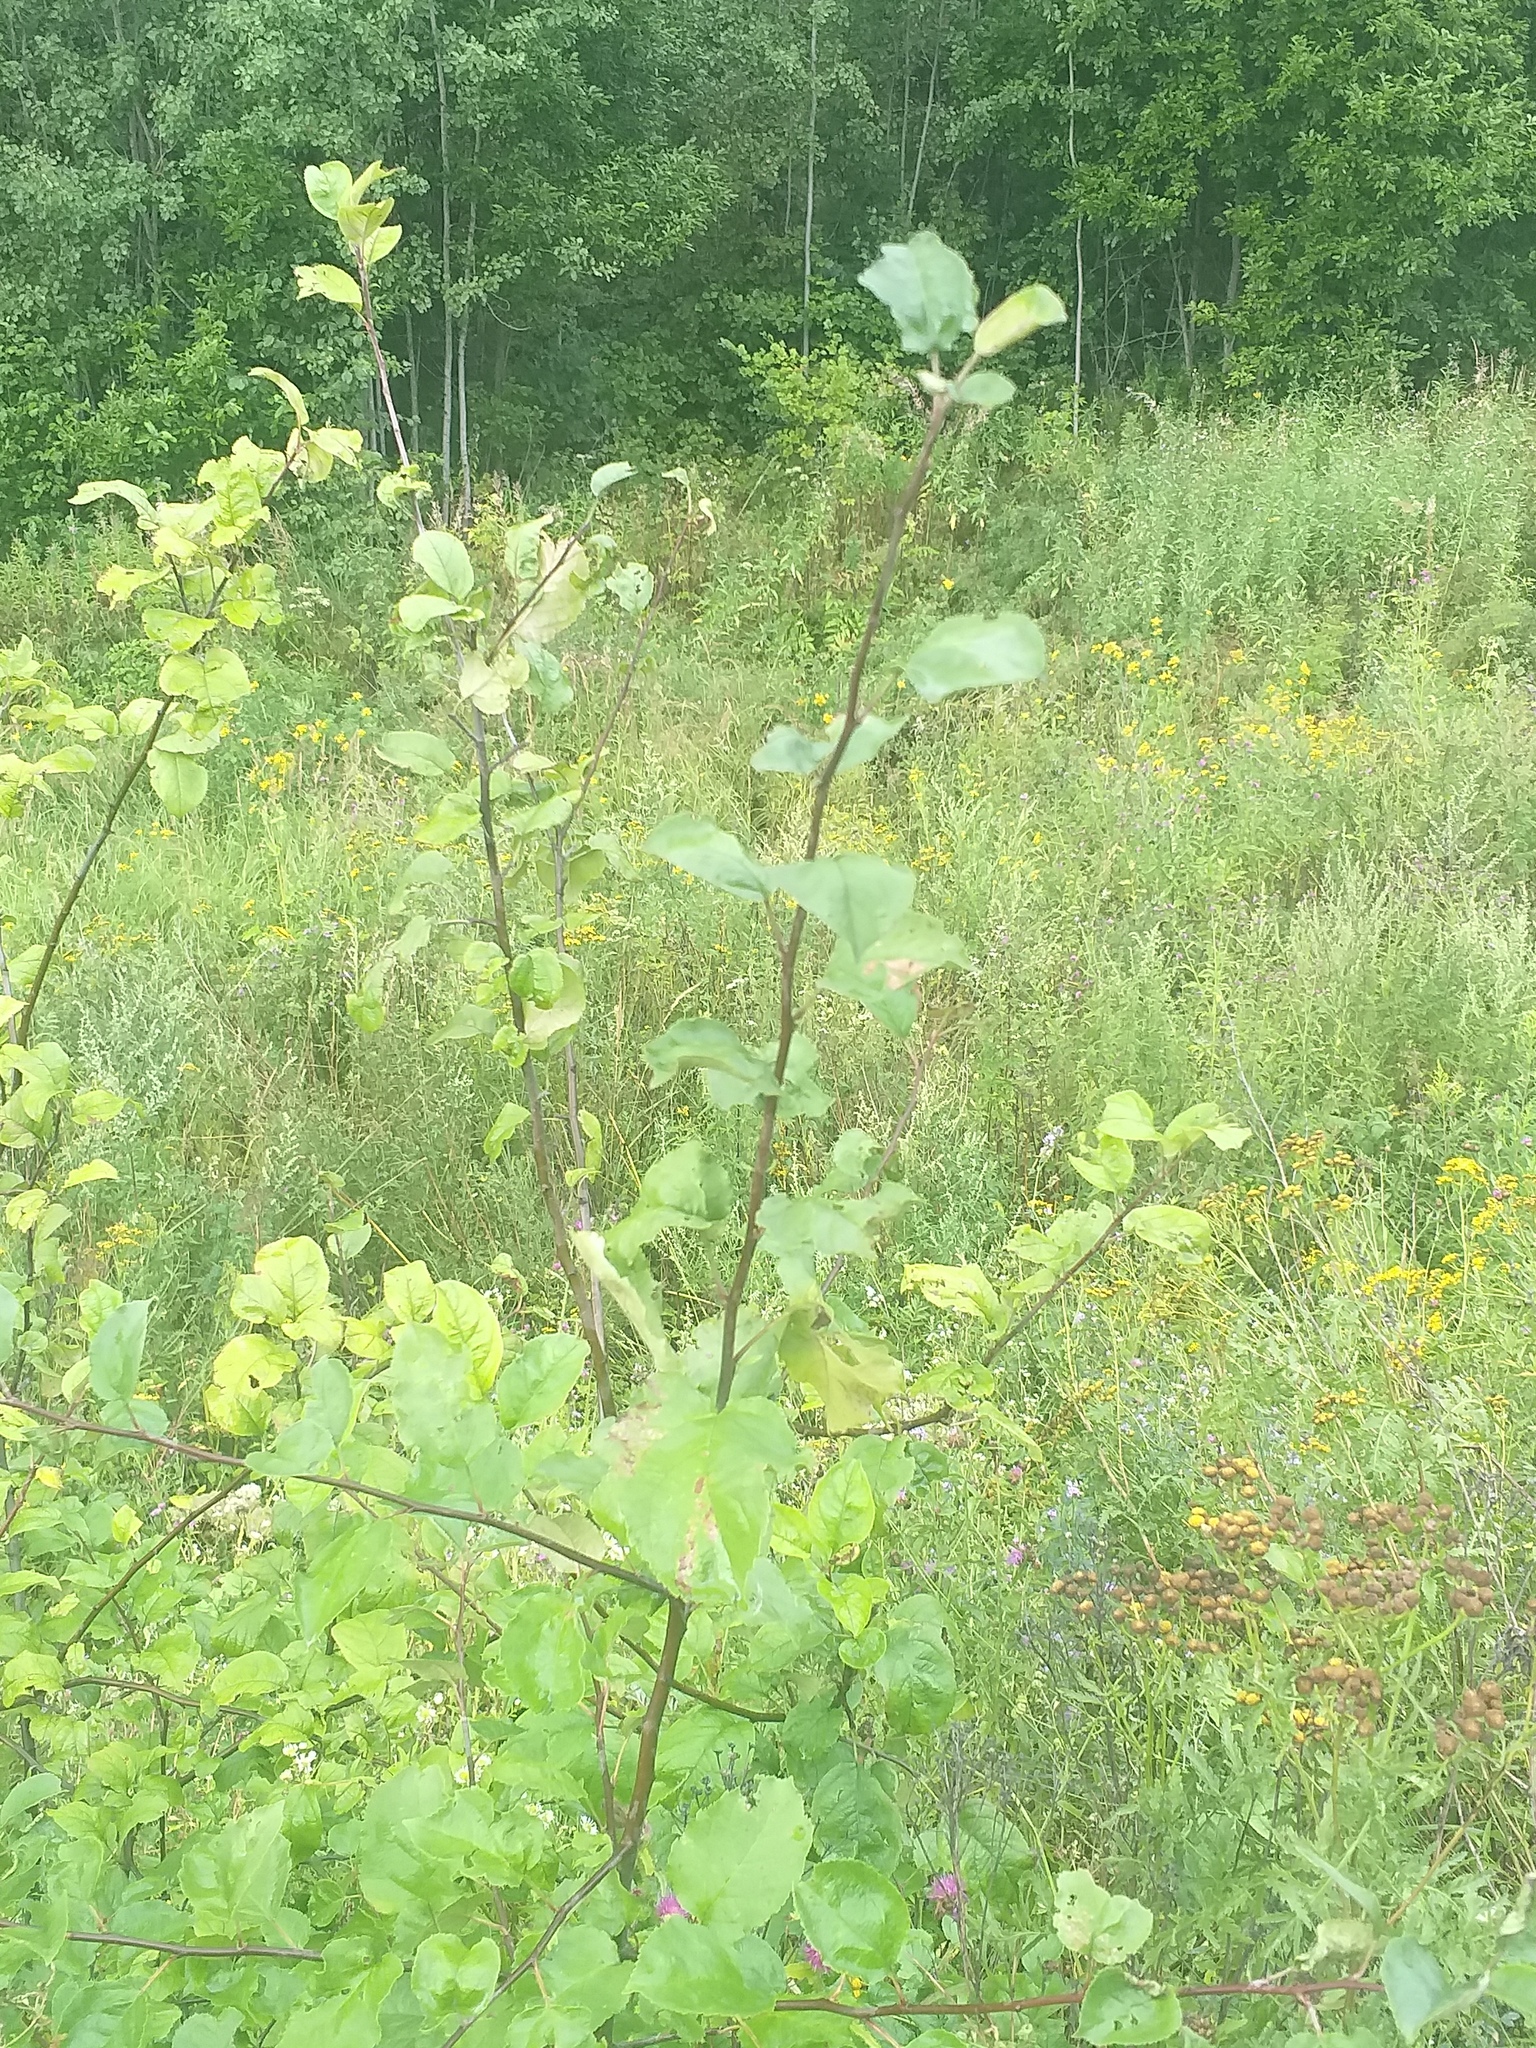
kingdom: Plantae
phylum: Tracheophyta
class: Magnoliopsida
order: Rosales
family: Rosaceae
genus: Malus
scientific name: Malus domestica
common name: Apple
